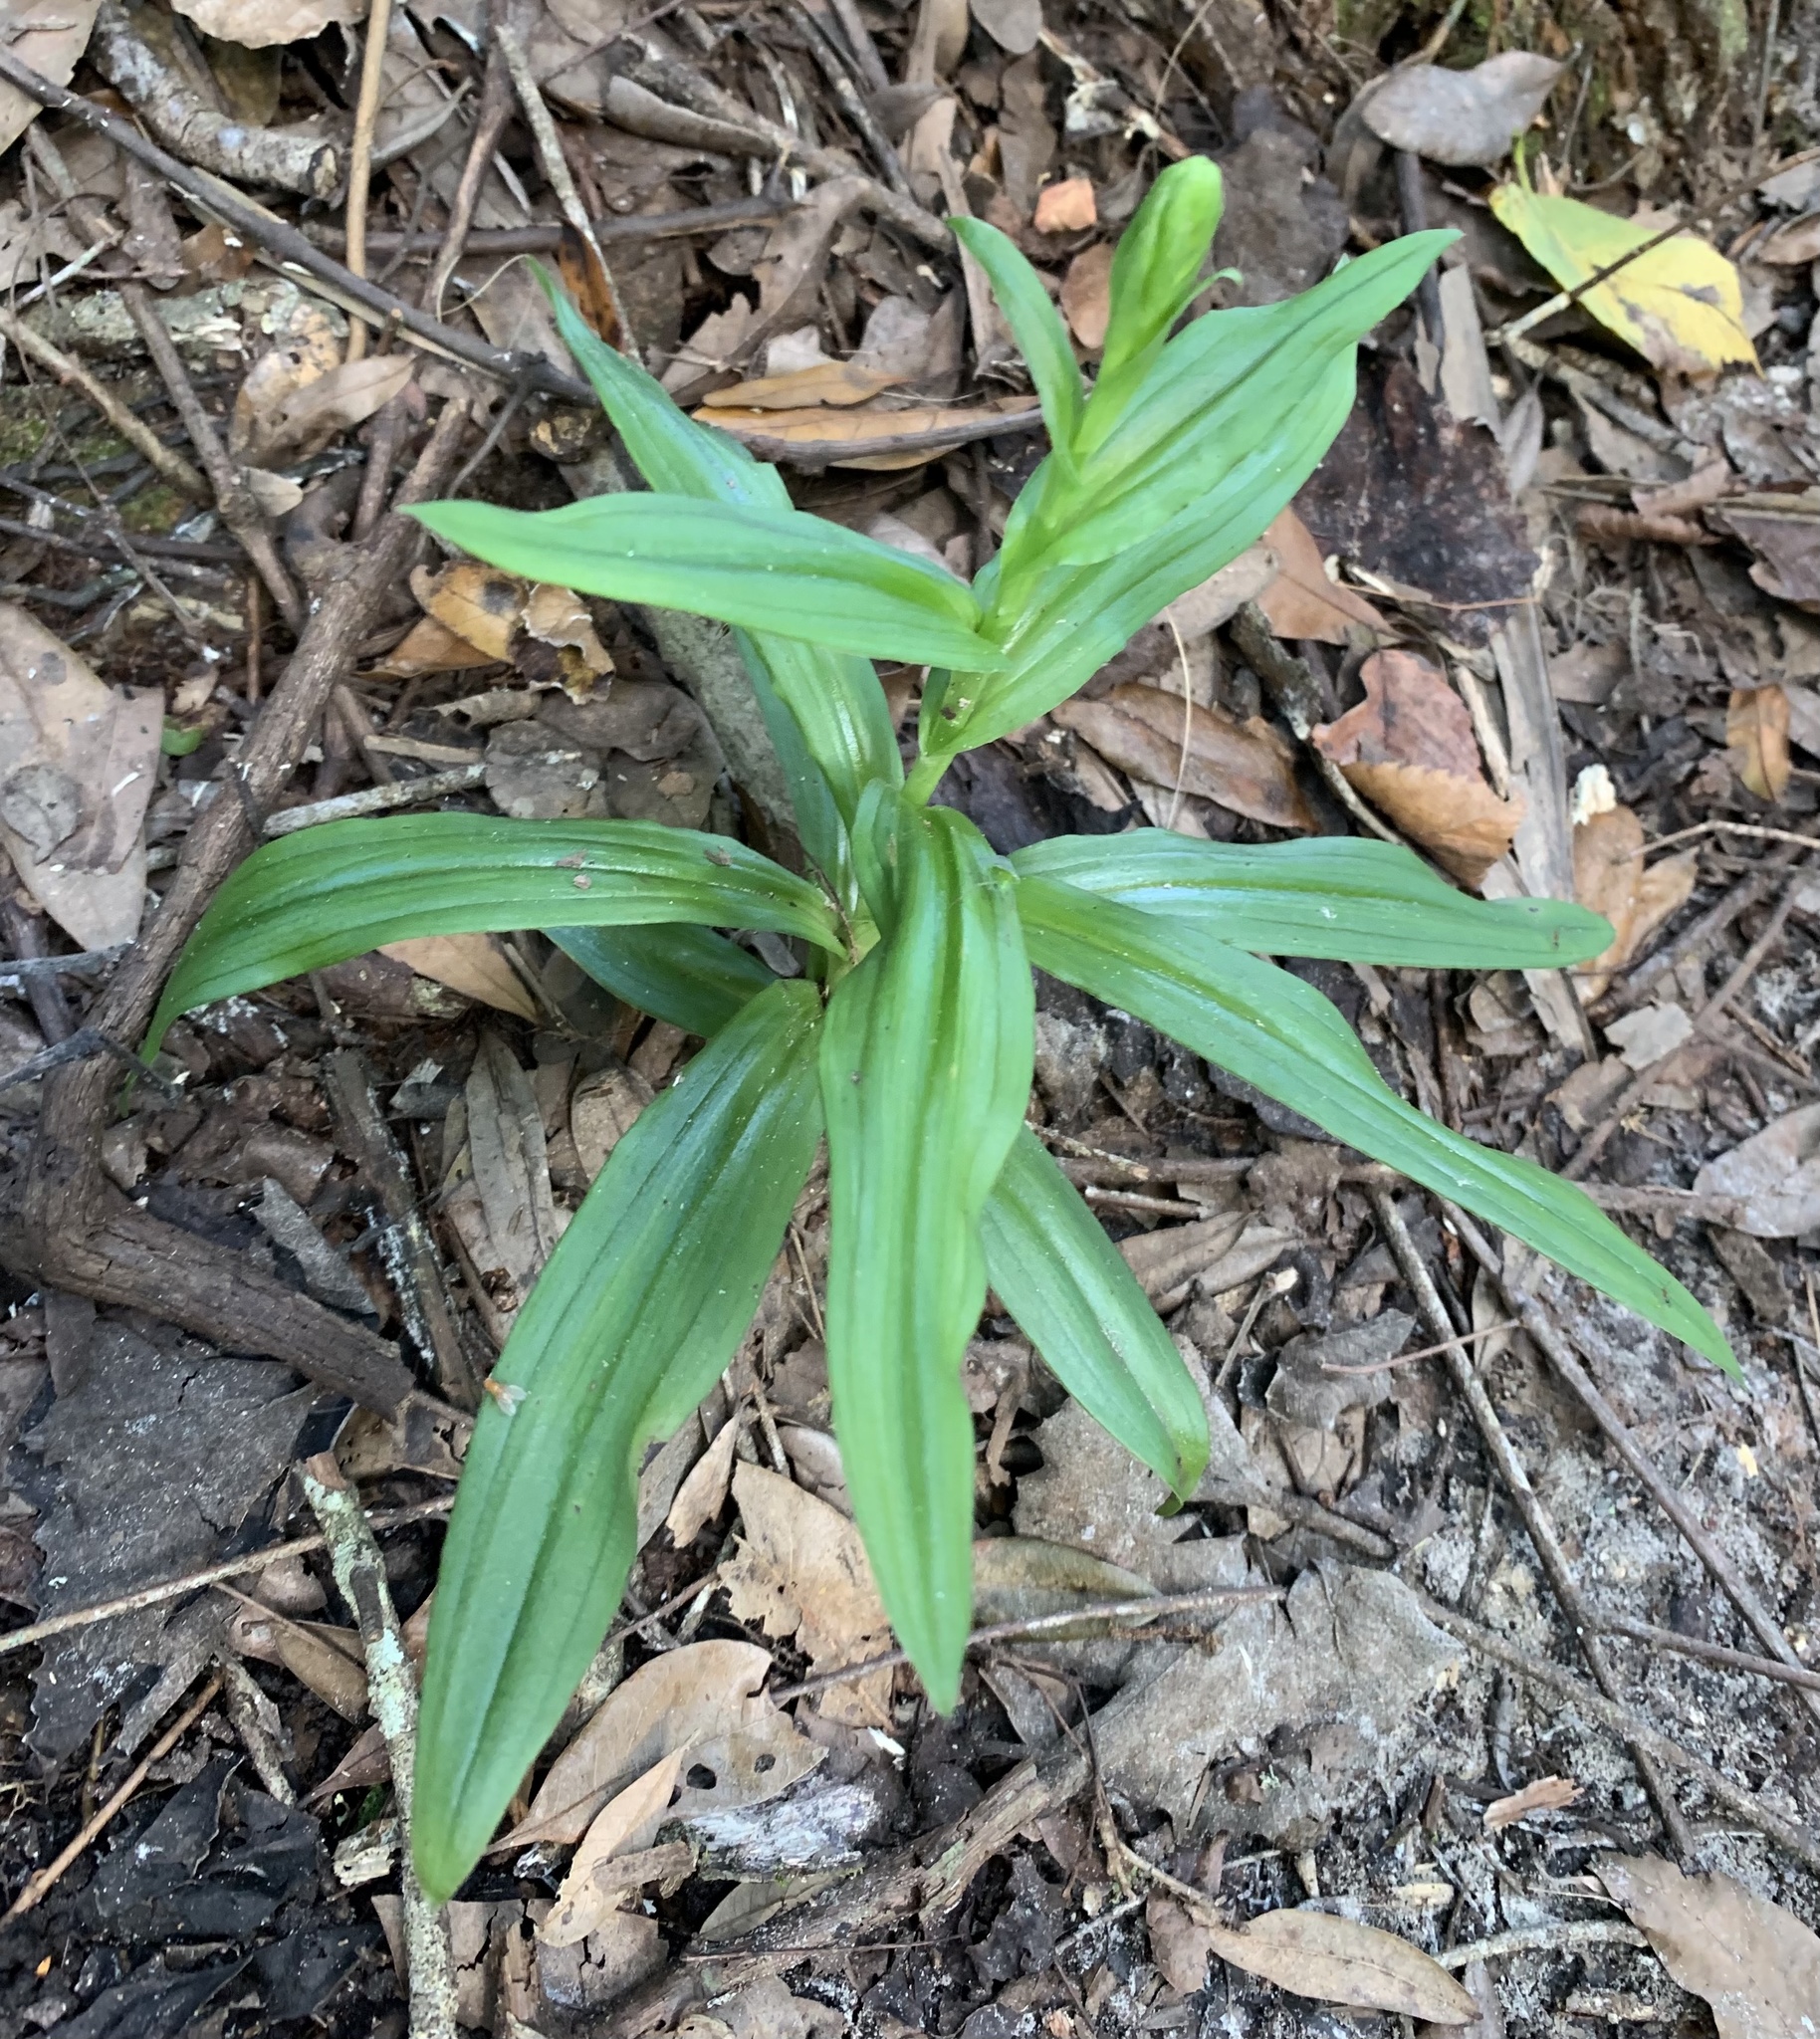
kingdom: Plantae
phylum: Tracheophyta
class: Liliopsida
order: Asparagales
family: Orchidaceae
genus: Habenaria
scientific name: Habenaria floribunda
